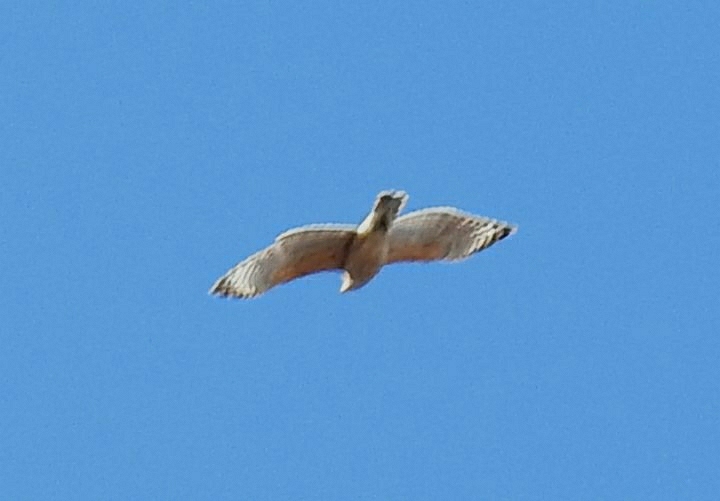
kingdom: Animalia
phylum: Chordata
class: Aves
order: Accipitriformes
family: Accipitridae
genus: Buteo
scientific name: Buteo lineatus
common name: Red-shouldered hawk
